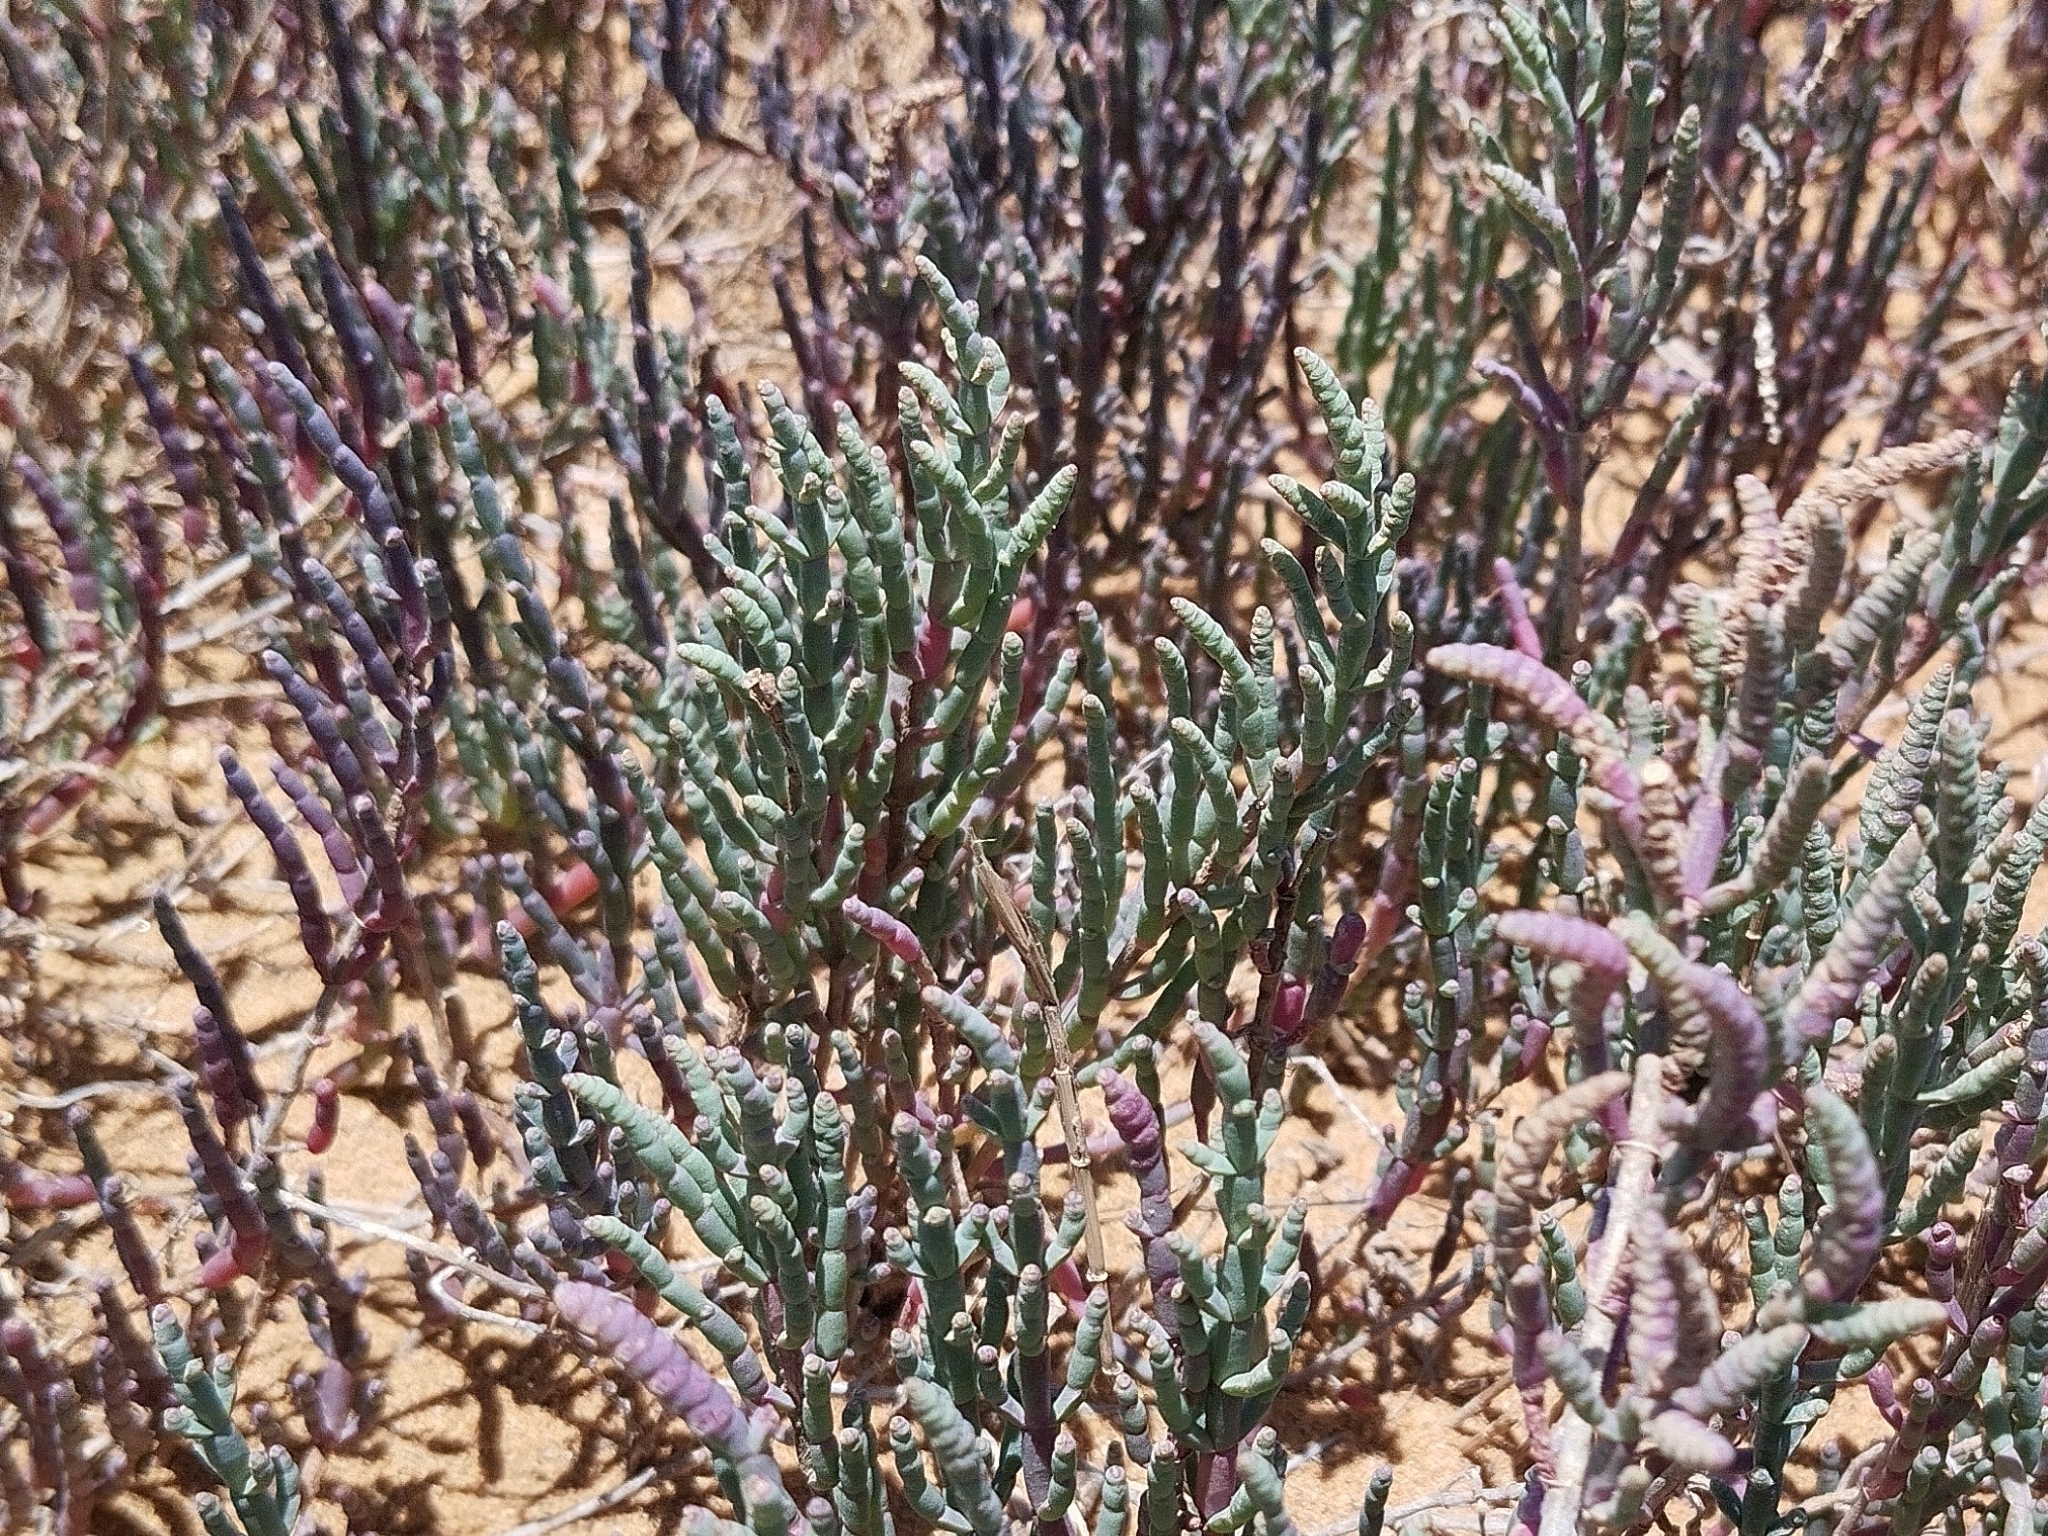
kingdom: Plantae
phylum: Tracheophyta
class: Magnoliopsida
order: Caryophyllales
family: Amaranthaceae
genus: Salicornia
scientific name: Salicornia europaea
